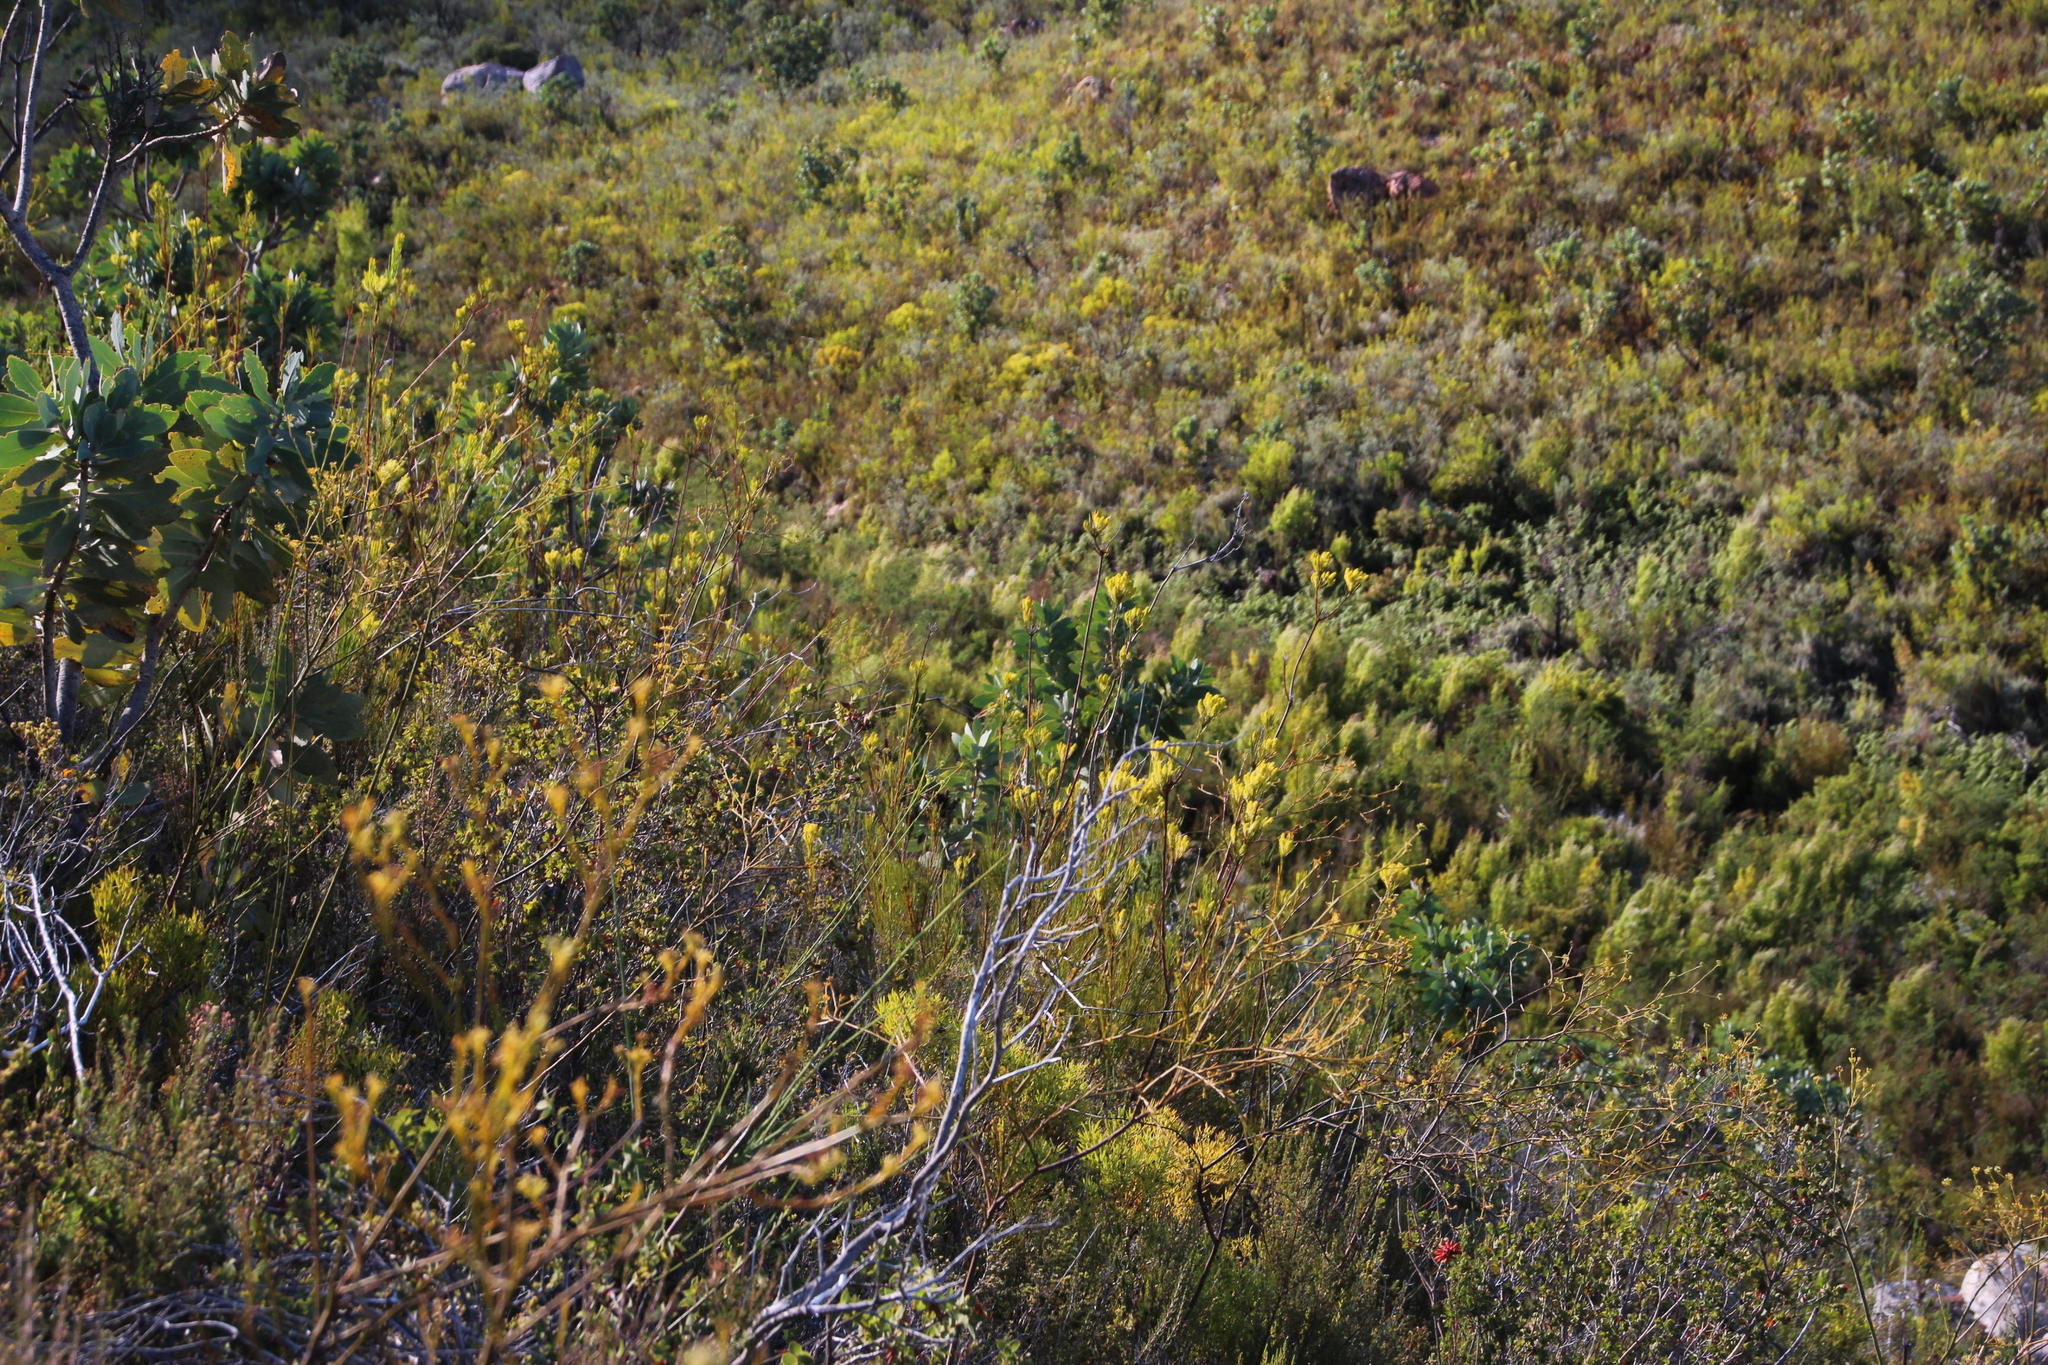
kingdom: Plantae
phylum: Tracheophyta
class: Magnoliopsida
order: Proteales
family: Proteaceae
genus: Aulax
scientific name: Aulax pallasia
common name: Needle-leaf featherbush
